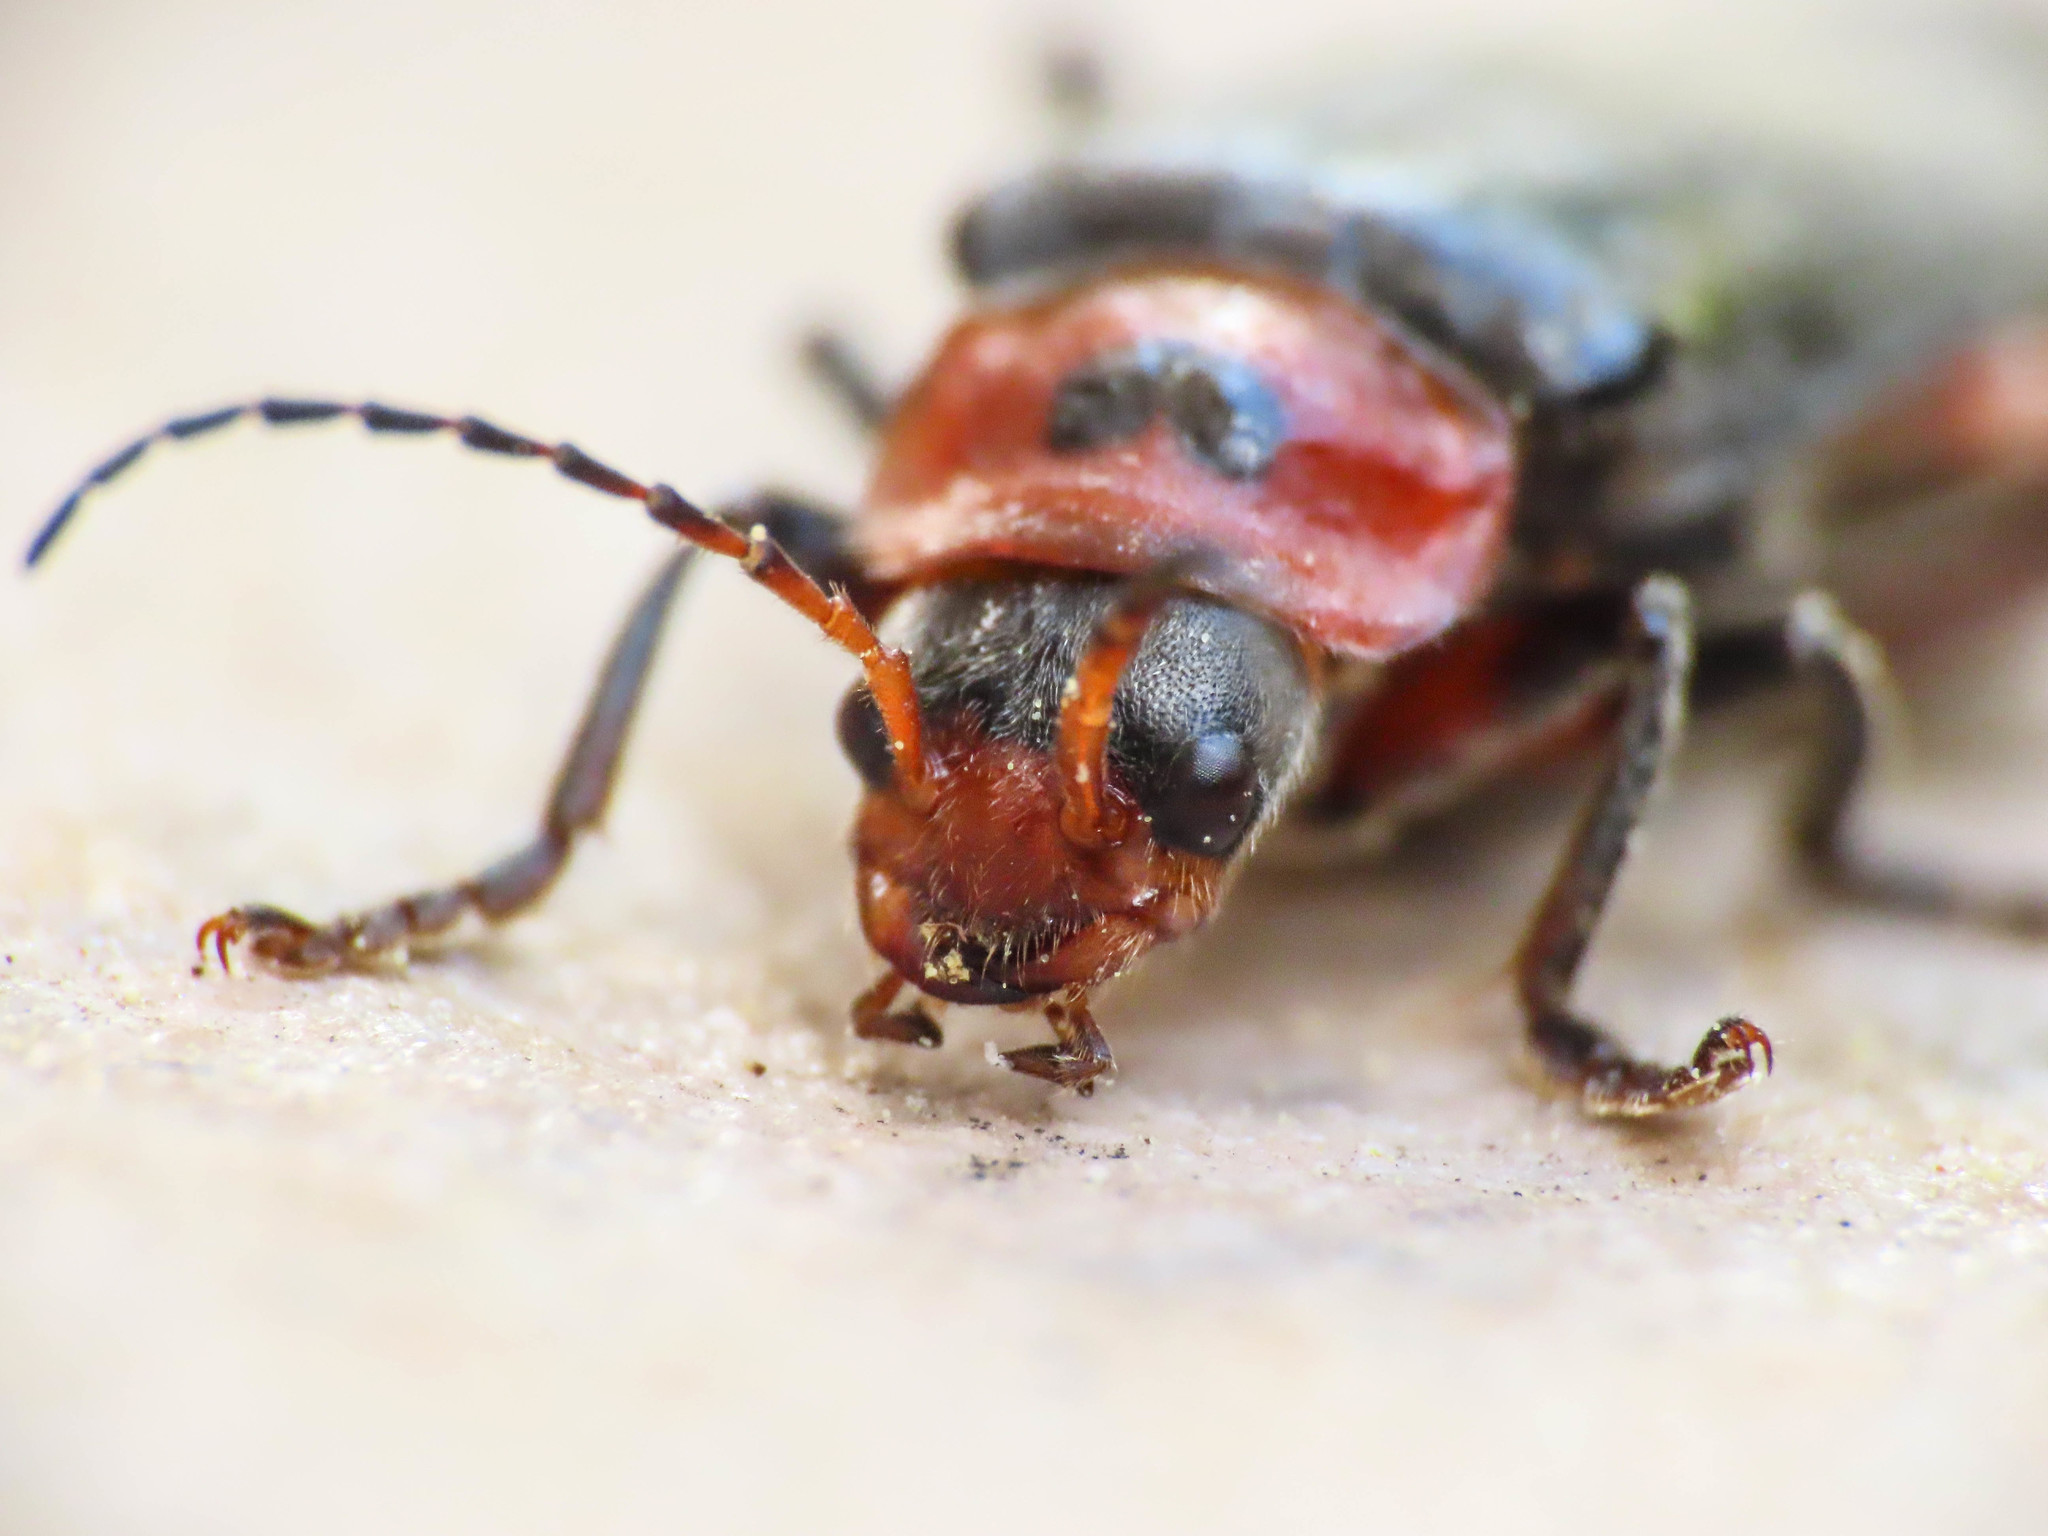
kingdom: Animalia
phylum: Arthropoda
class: Insecta
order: Coleoptera
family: Cantharidae
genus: Cantharis
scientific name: Cantharis rustica
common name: Soldier beetle
